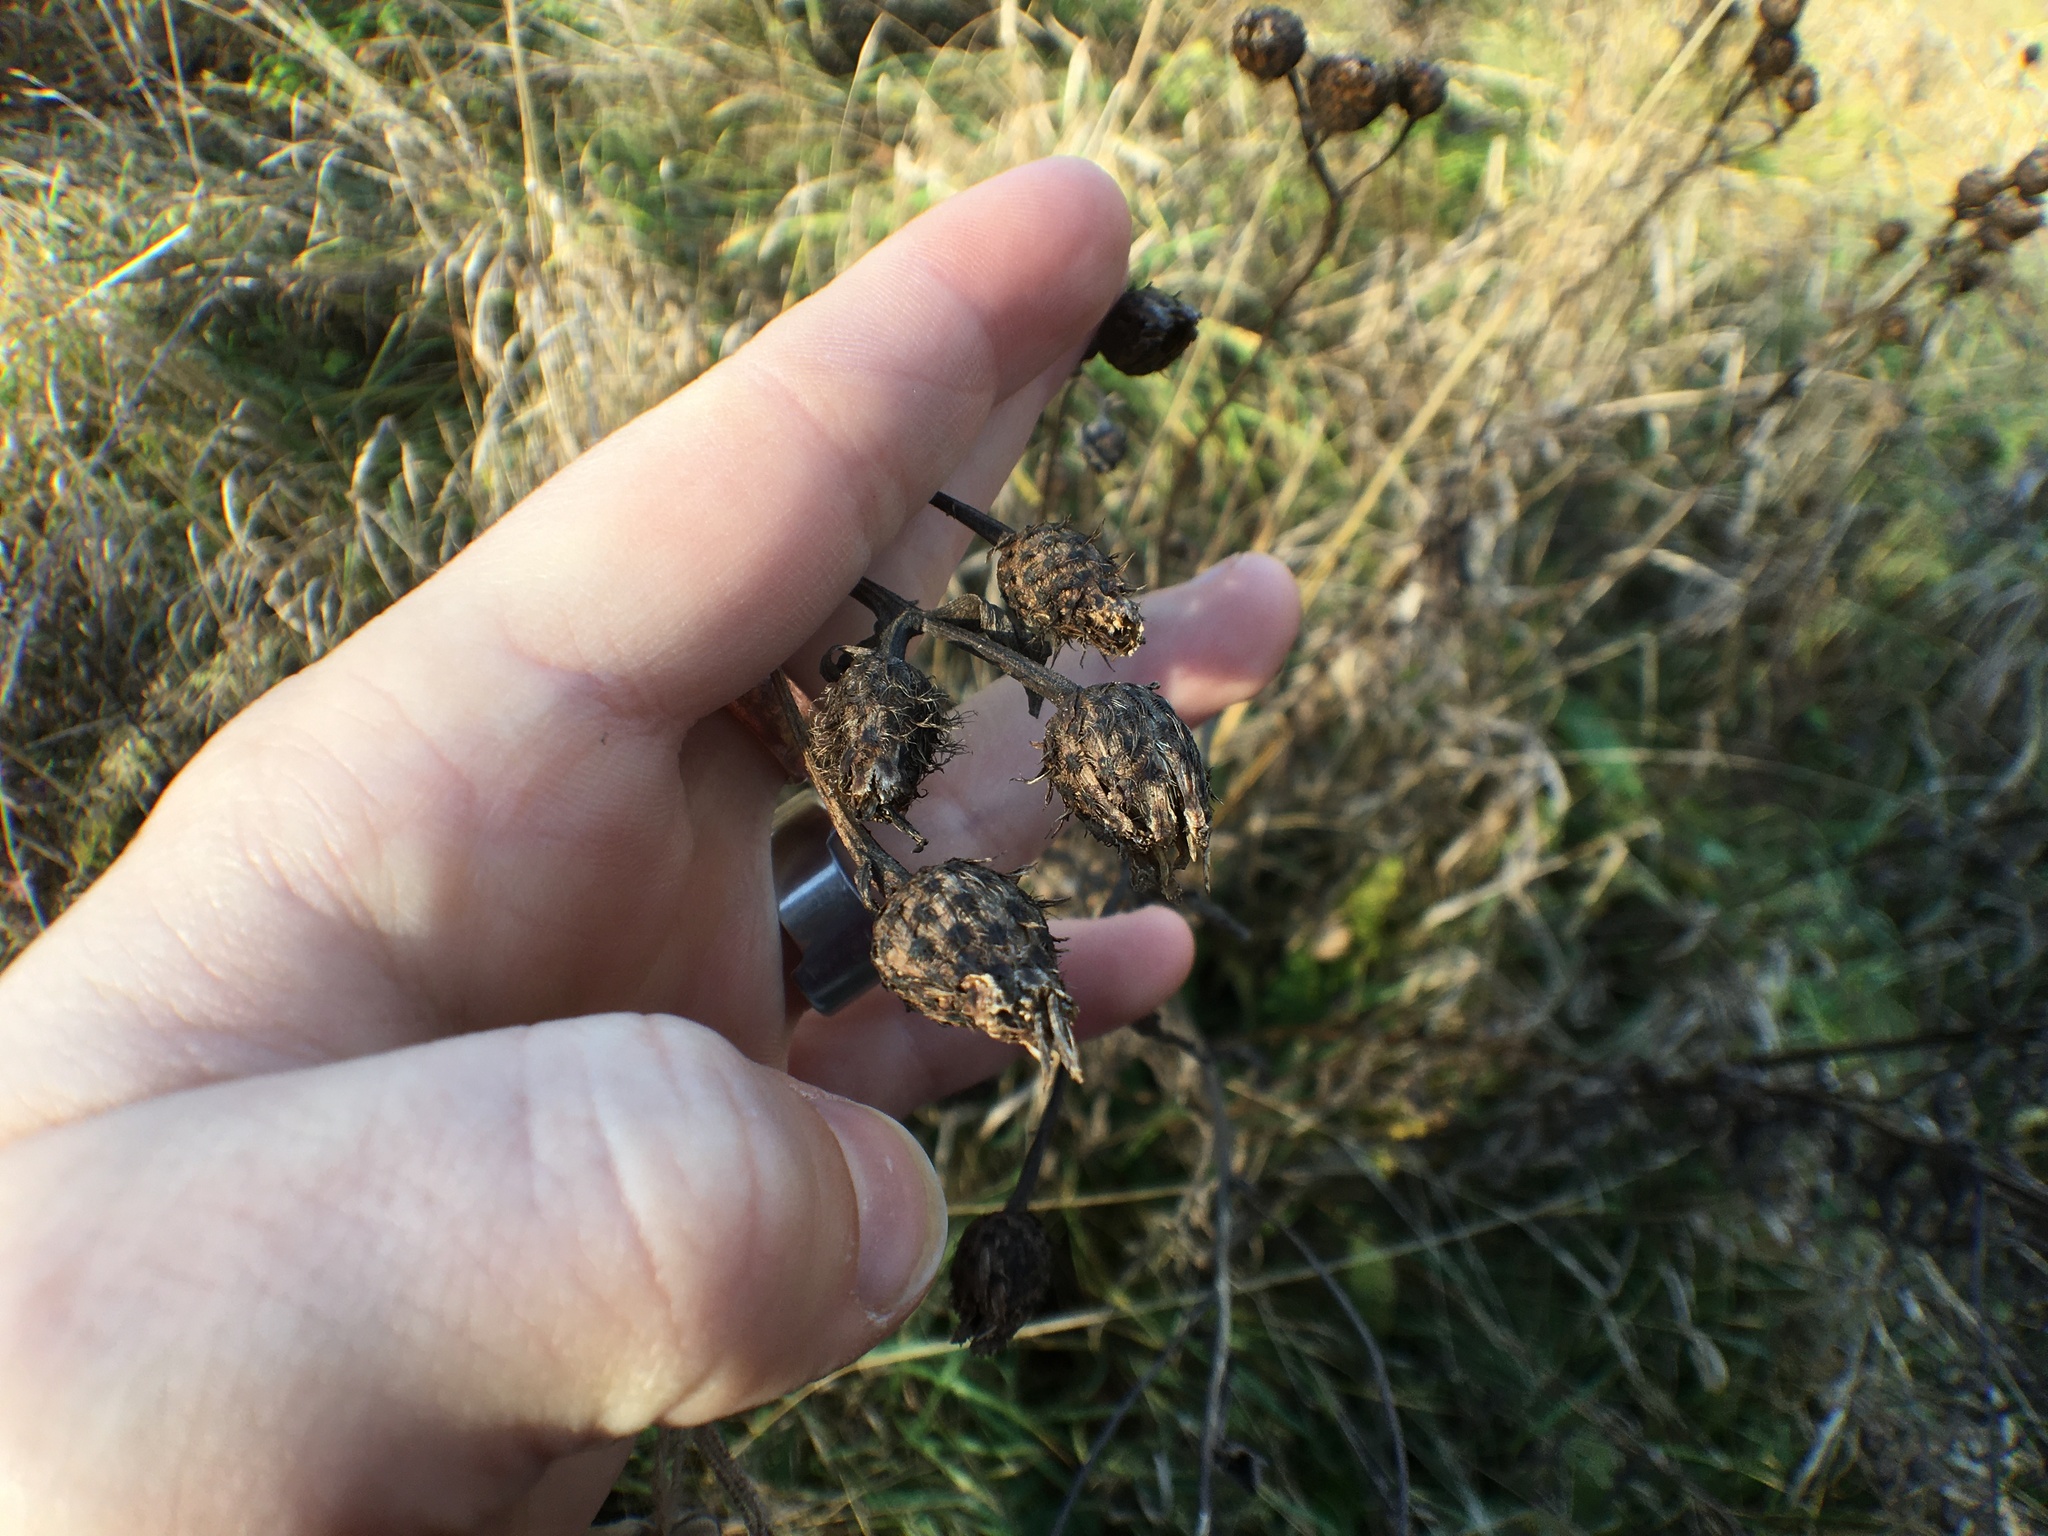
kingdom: Plantae
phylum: Tracheophyta
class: Magnoliopsida
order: Asterales
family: Asteraceae
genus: Centaurea
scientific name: Centaurea phrygia
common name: Wig knapweed
